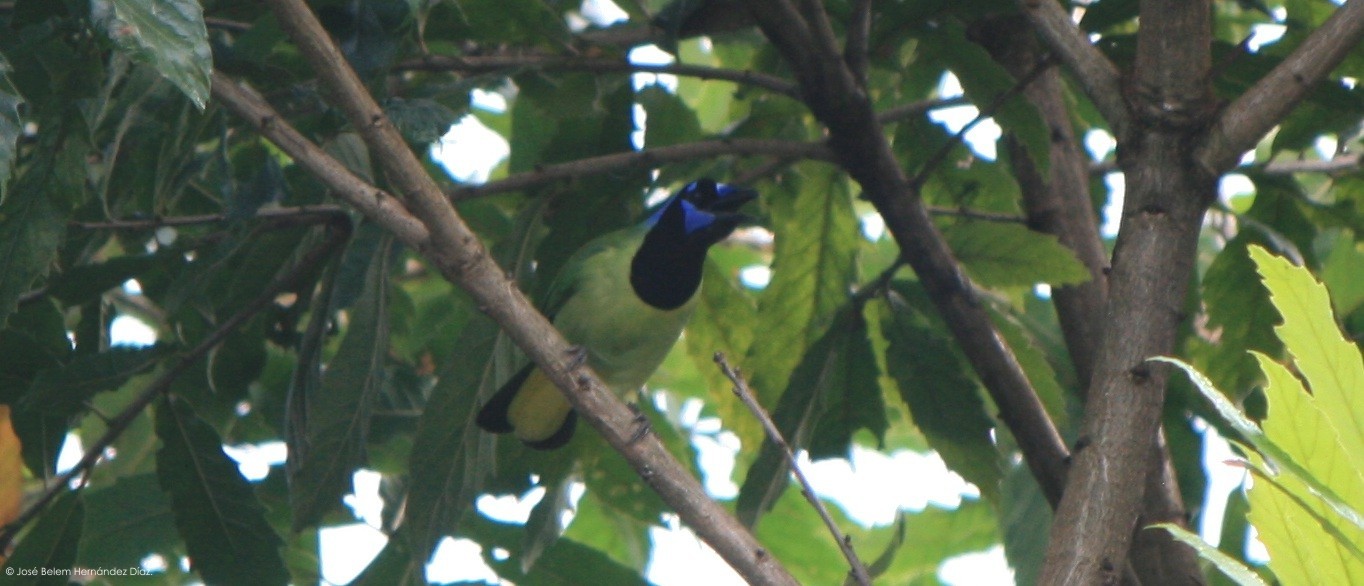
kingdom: Animalia
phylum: Chordata
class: Aves
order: Passeriformes
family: Corvidae
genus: Cyanocorax
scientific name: Cyanocorax yncas
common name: Green jay
